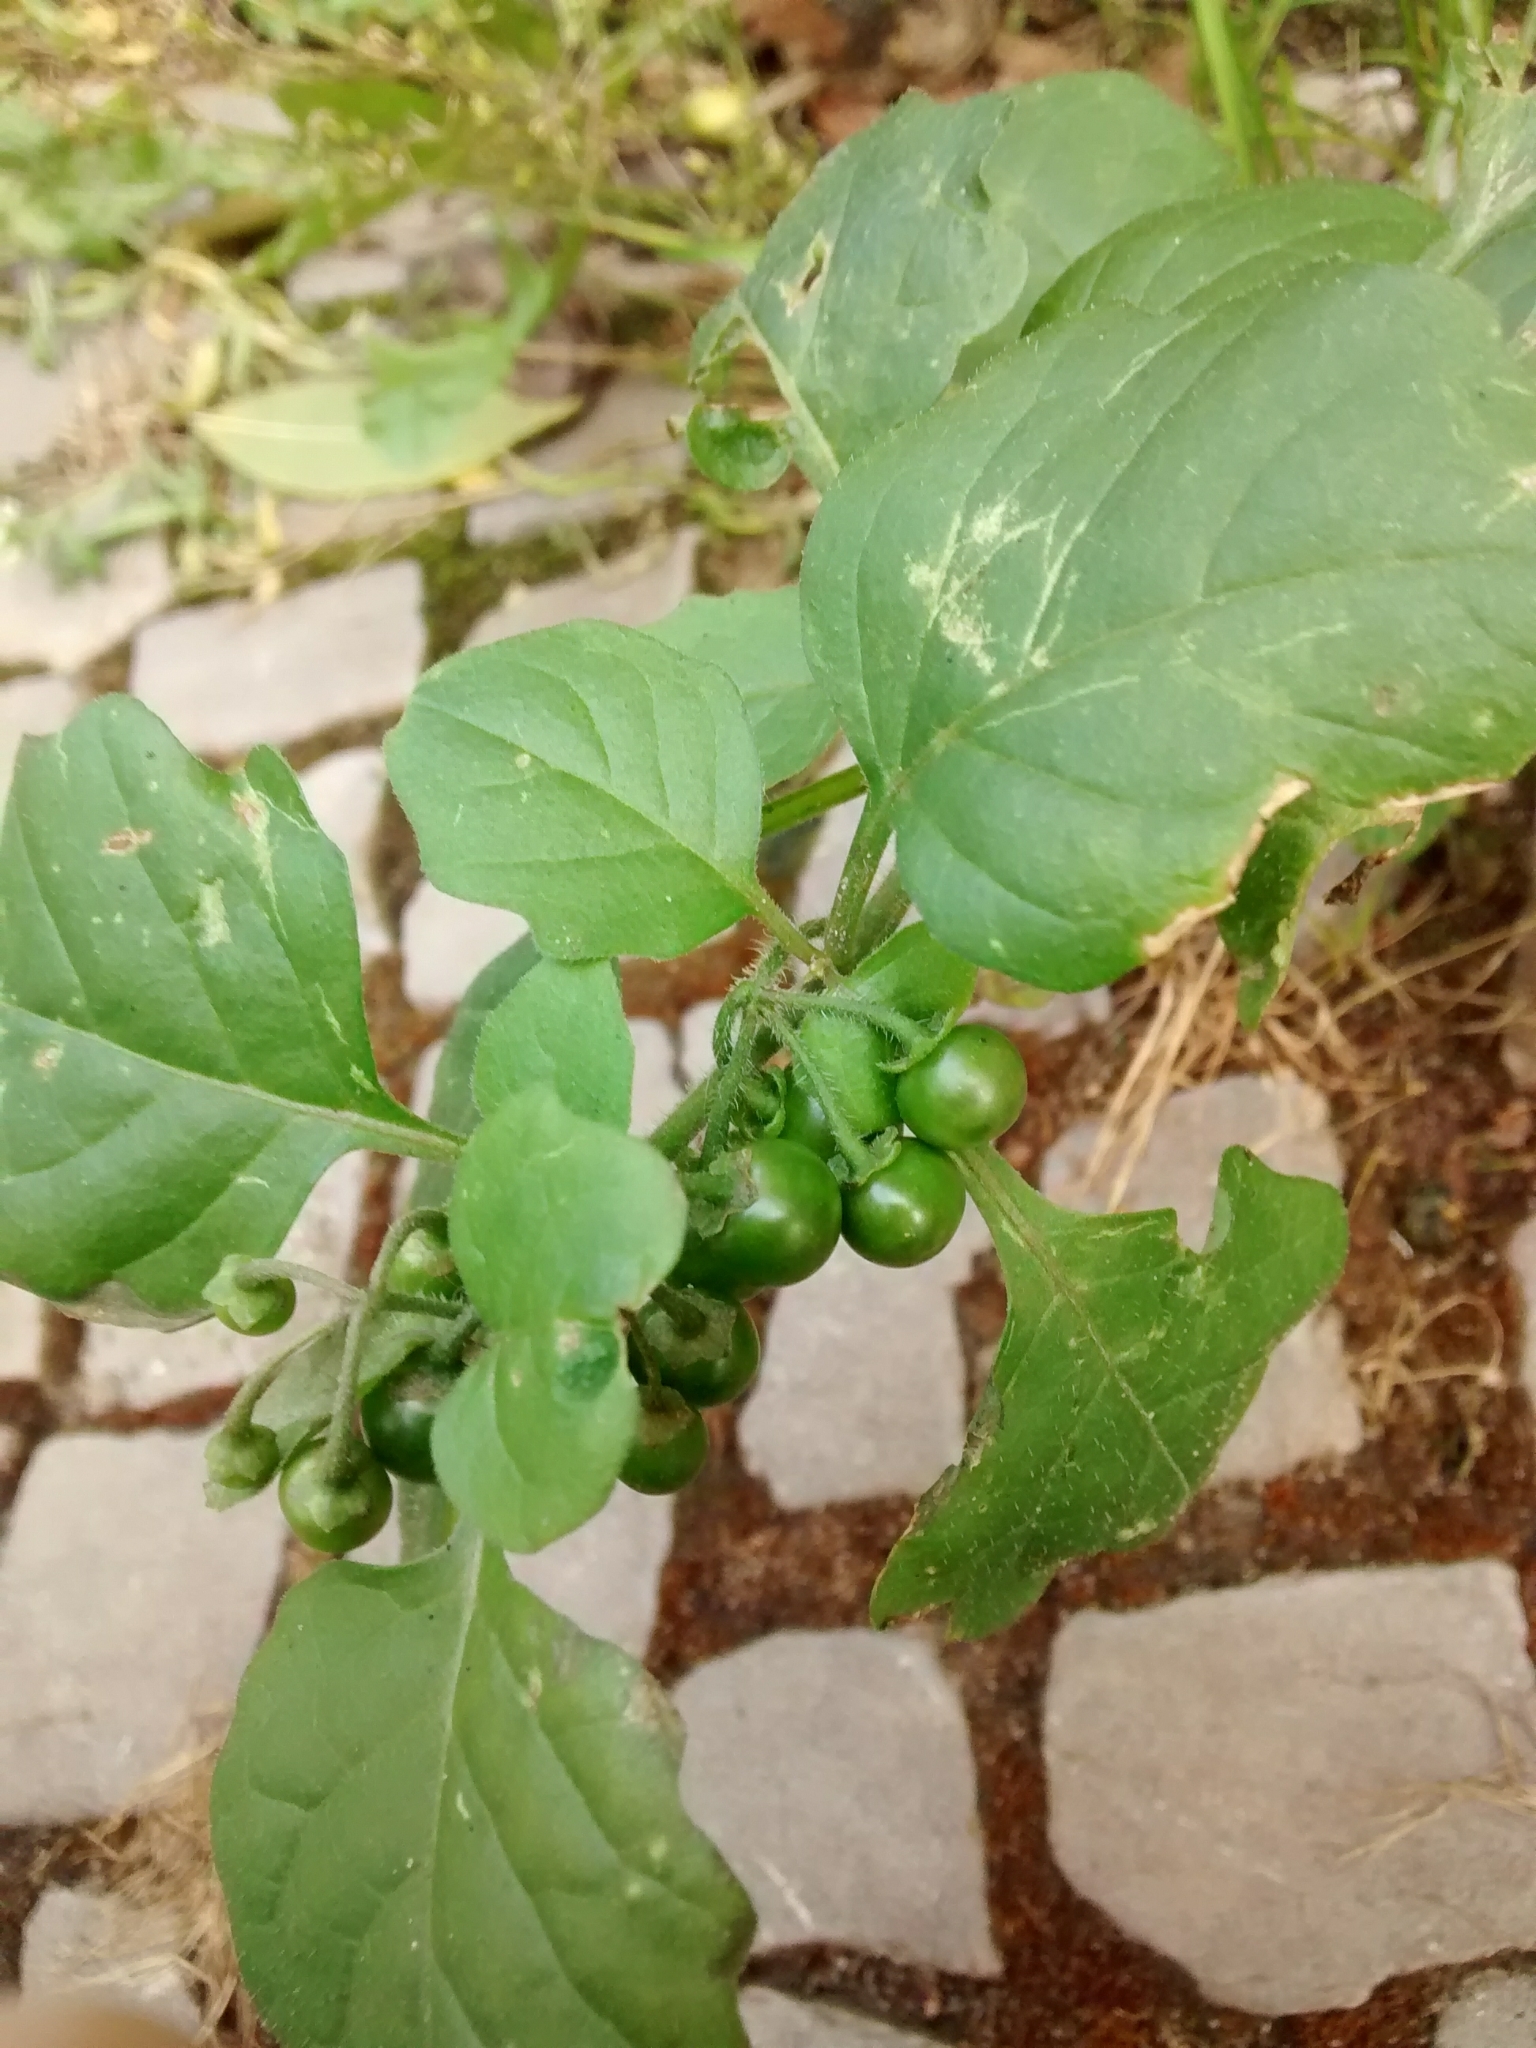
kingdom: Plantae
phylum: Tracheophyta
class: Magnoliopsida
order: Solanales
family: Solanaceae
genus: Solanum
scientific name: Solanum nigrum
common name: Black nightshade
